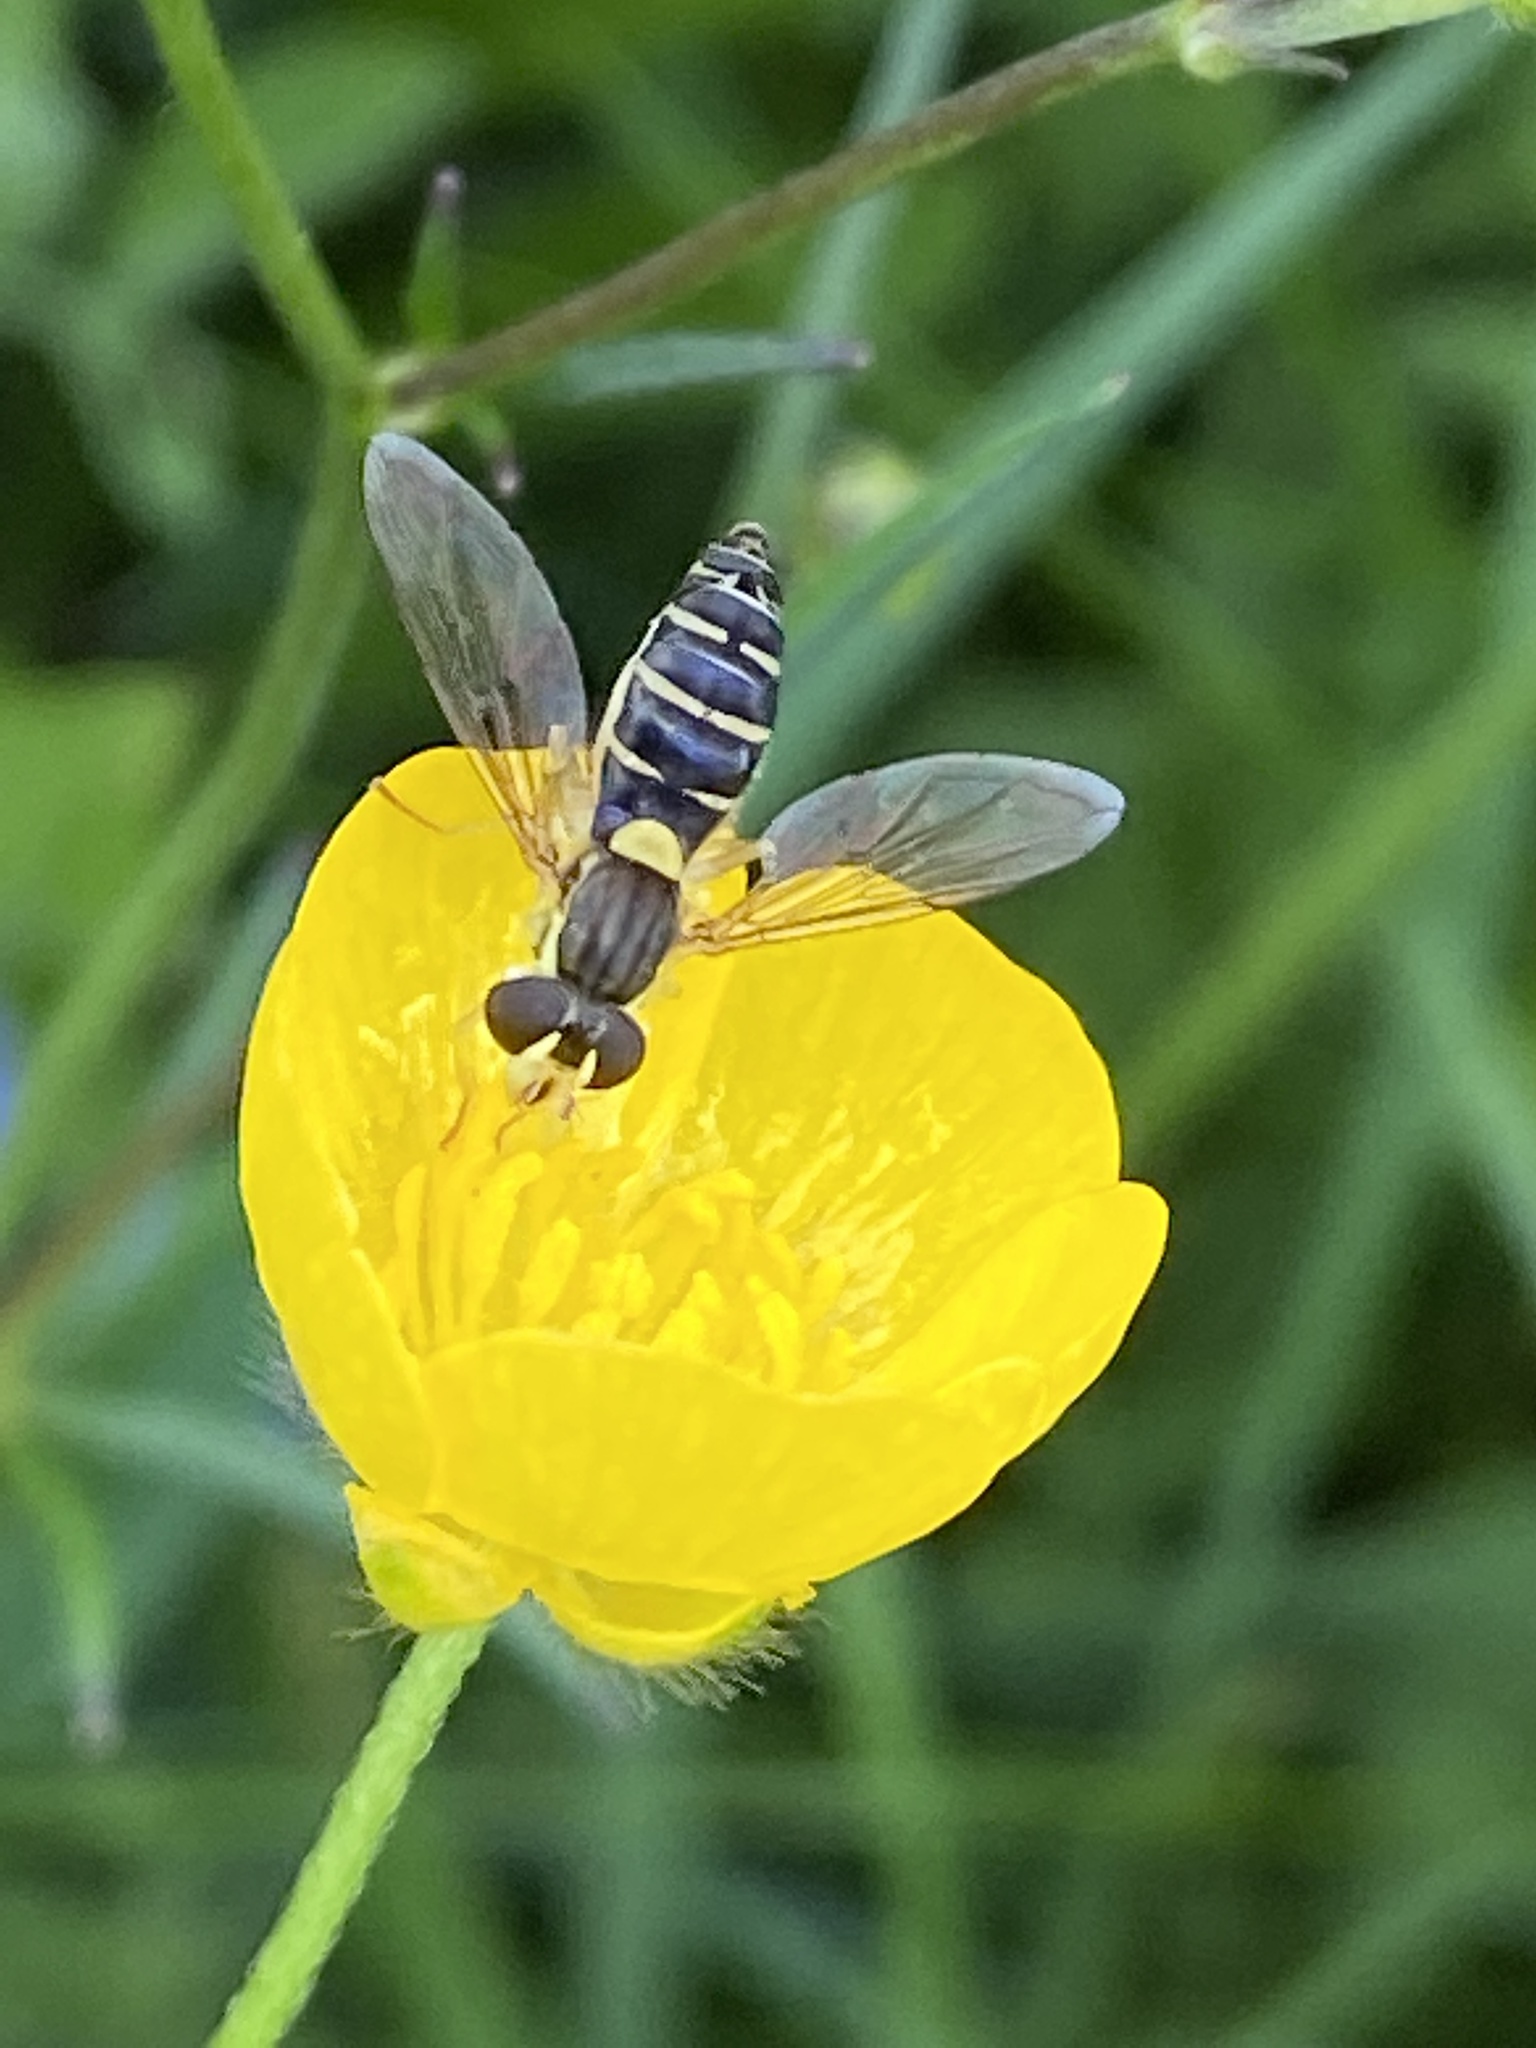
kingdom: Animalia
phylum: Arthropoda
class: Insecta
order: Diptera
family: Syrphidae
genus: Sphaerophoria
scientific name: Sphaerophoria
